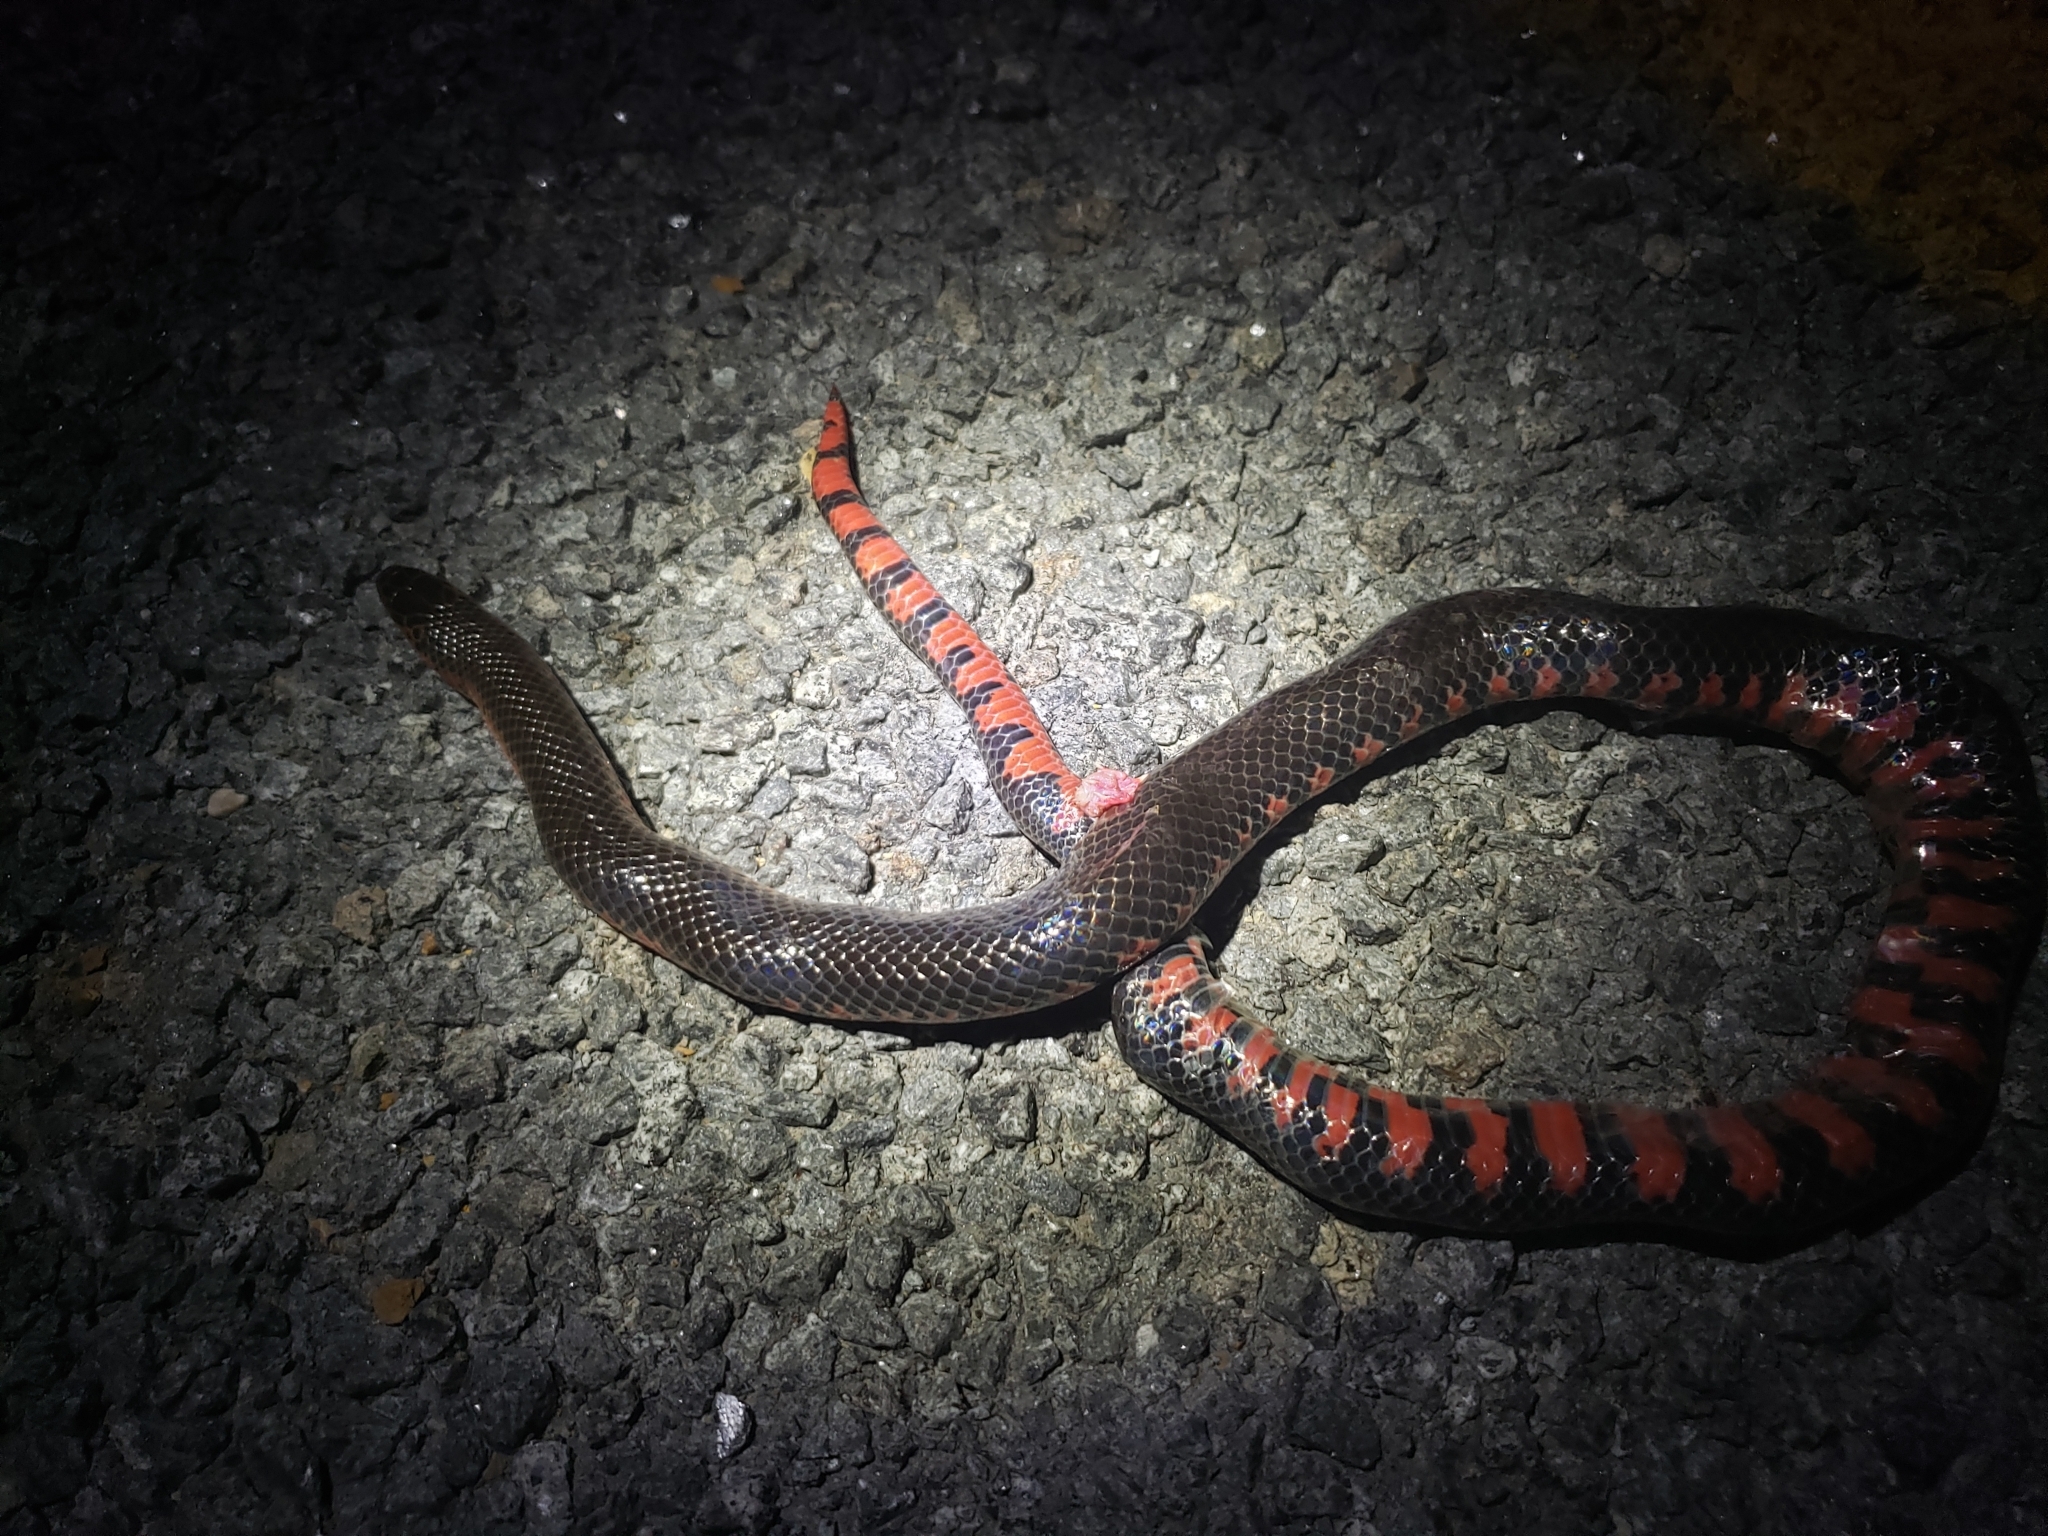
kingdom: Animalia
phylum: Chordata
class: Squamata
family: Colubridae
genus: Farancia
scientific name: Farancia abacura
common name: Mud snake
